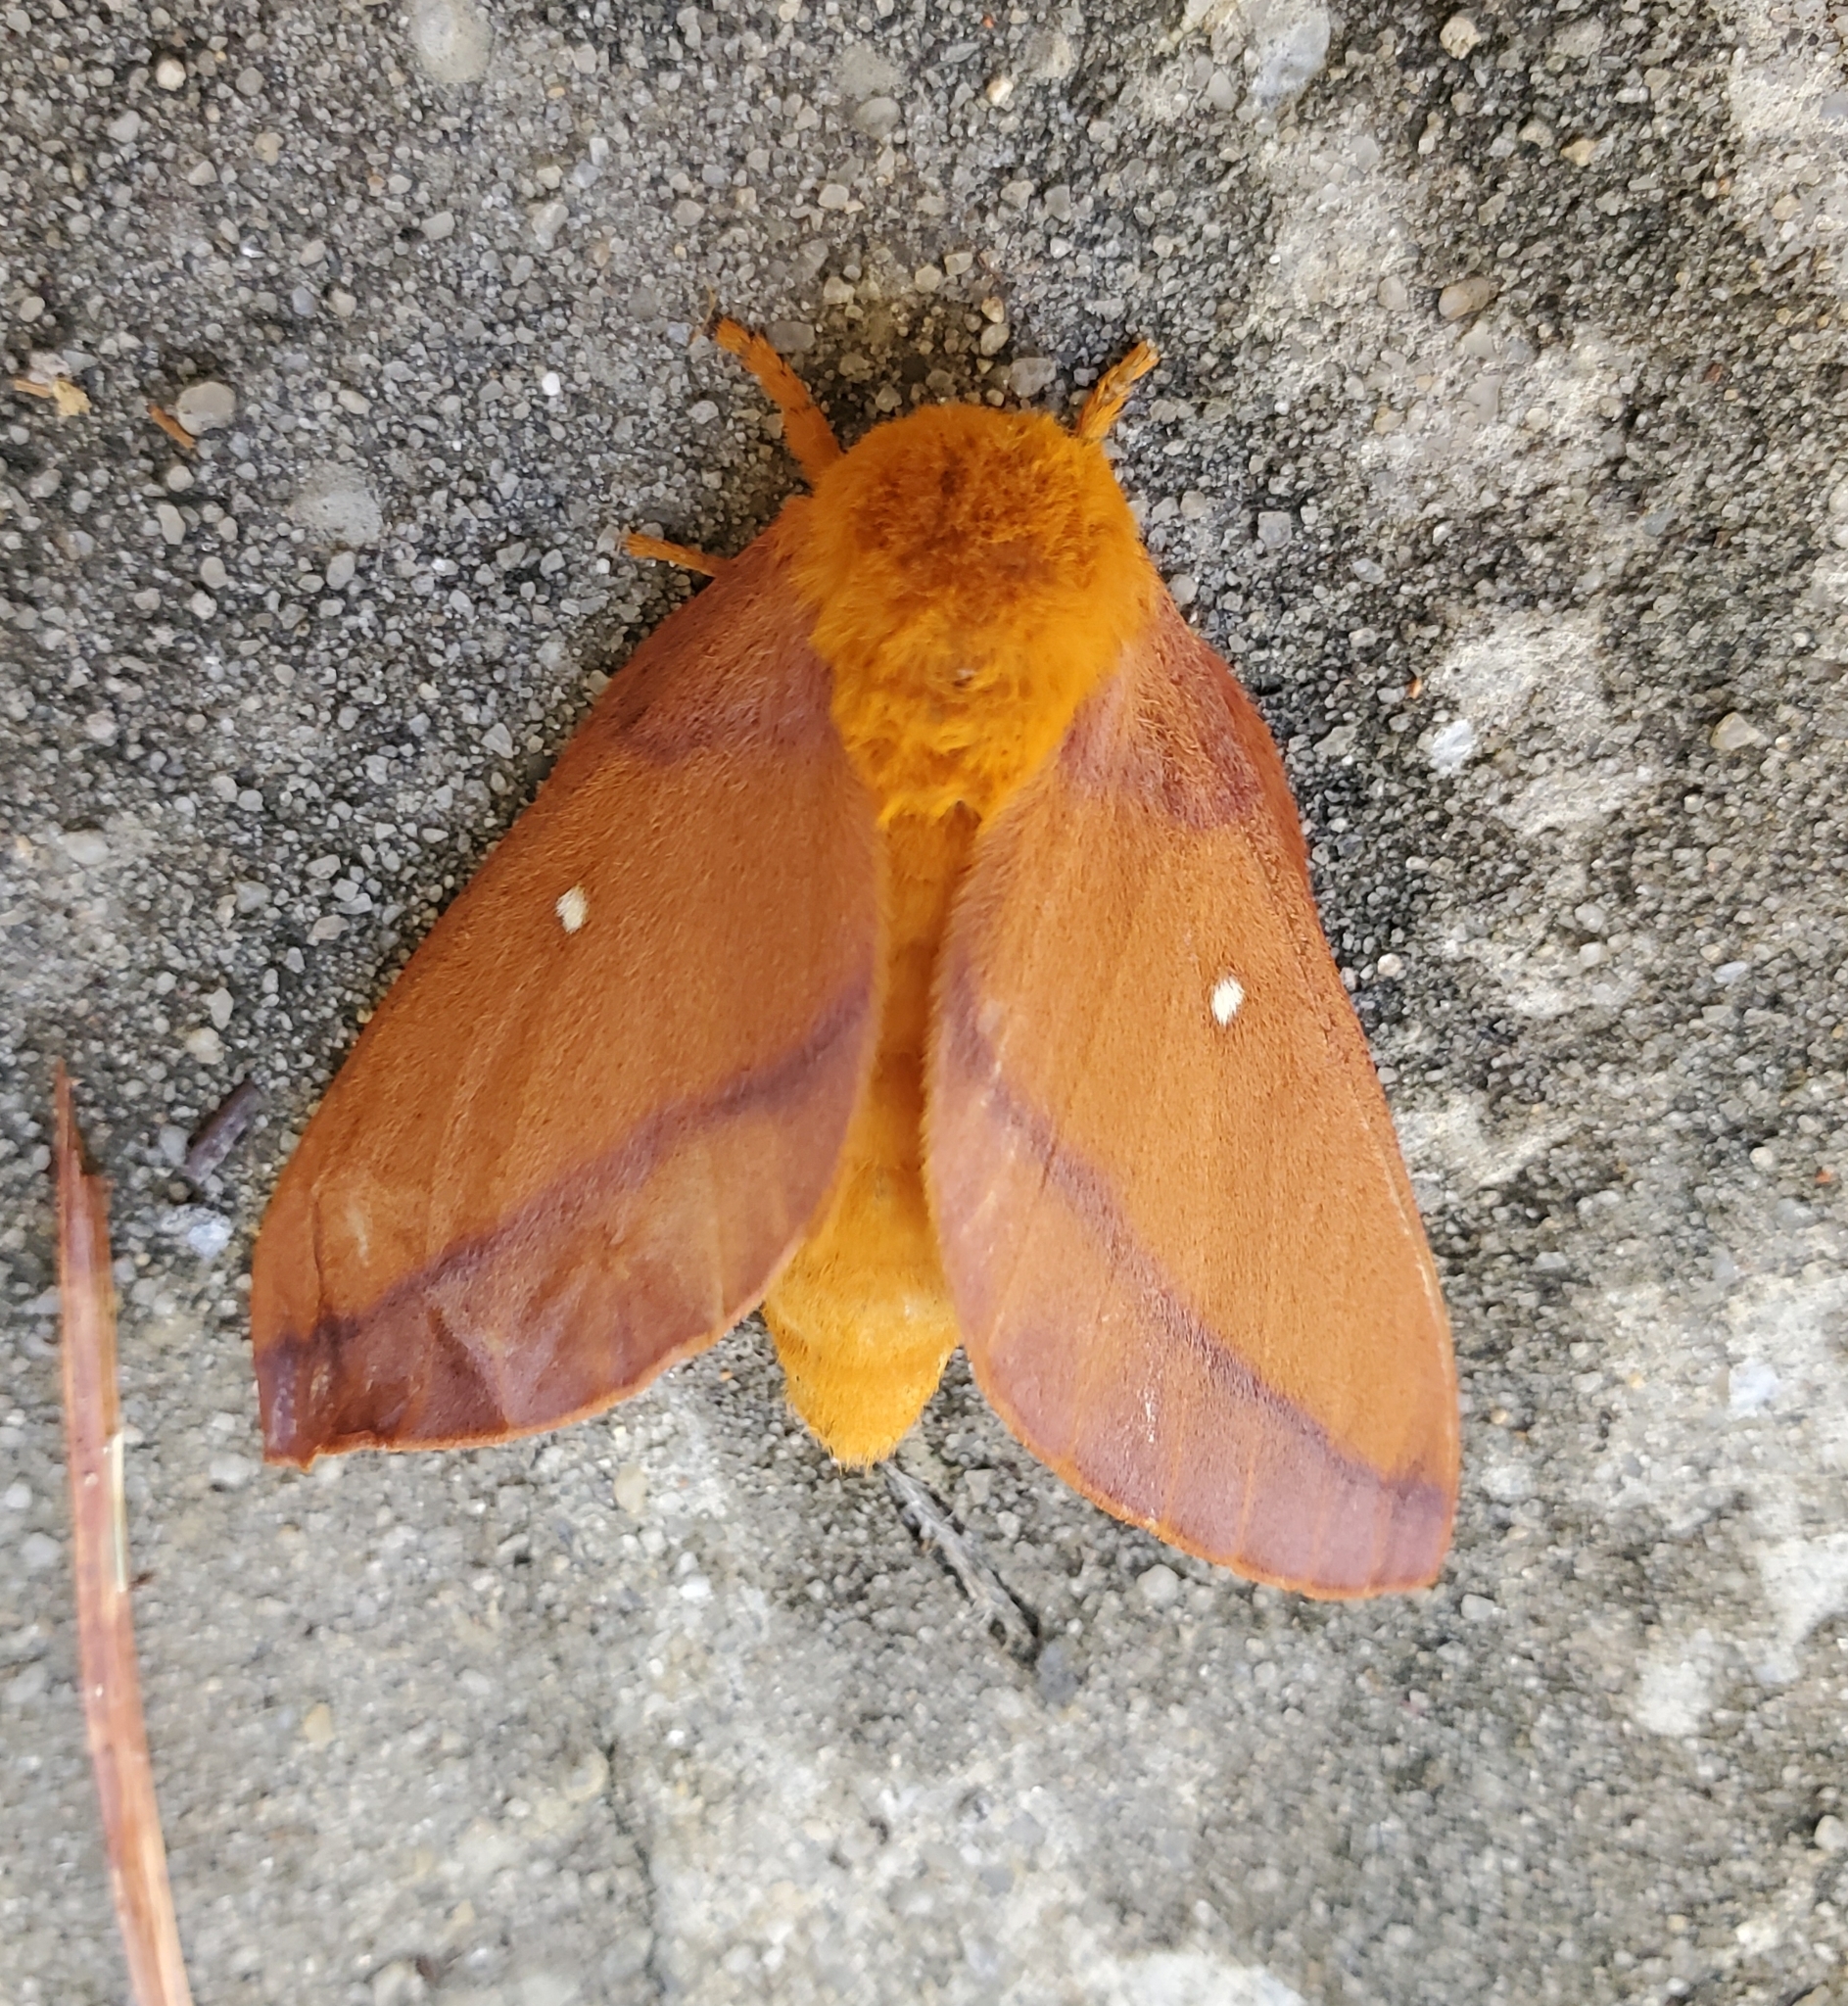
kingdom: Animalia
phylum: Arthropoda
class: Insecta
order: Lepidoptera
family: Saturniidae
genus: Anisota
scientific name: Anisota virginiensis
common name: Pink striped oakworm moth
